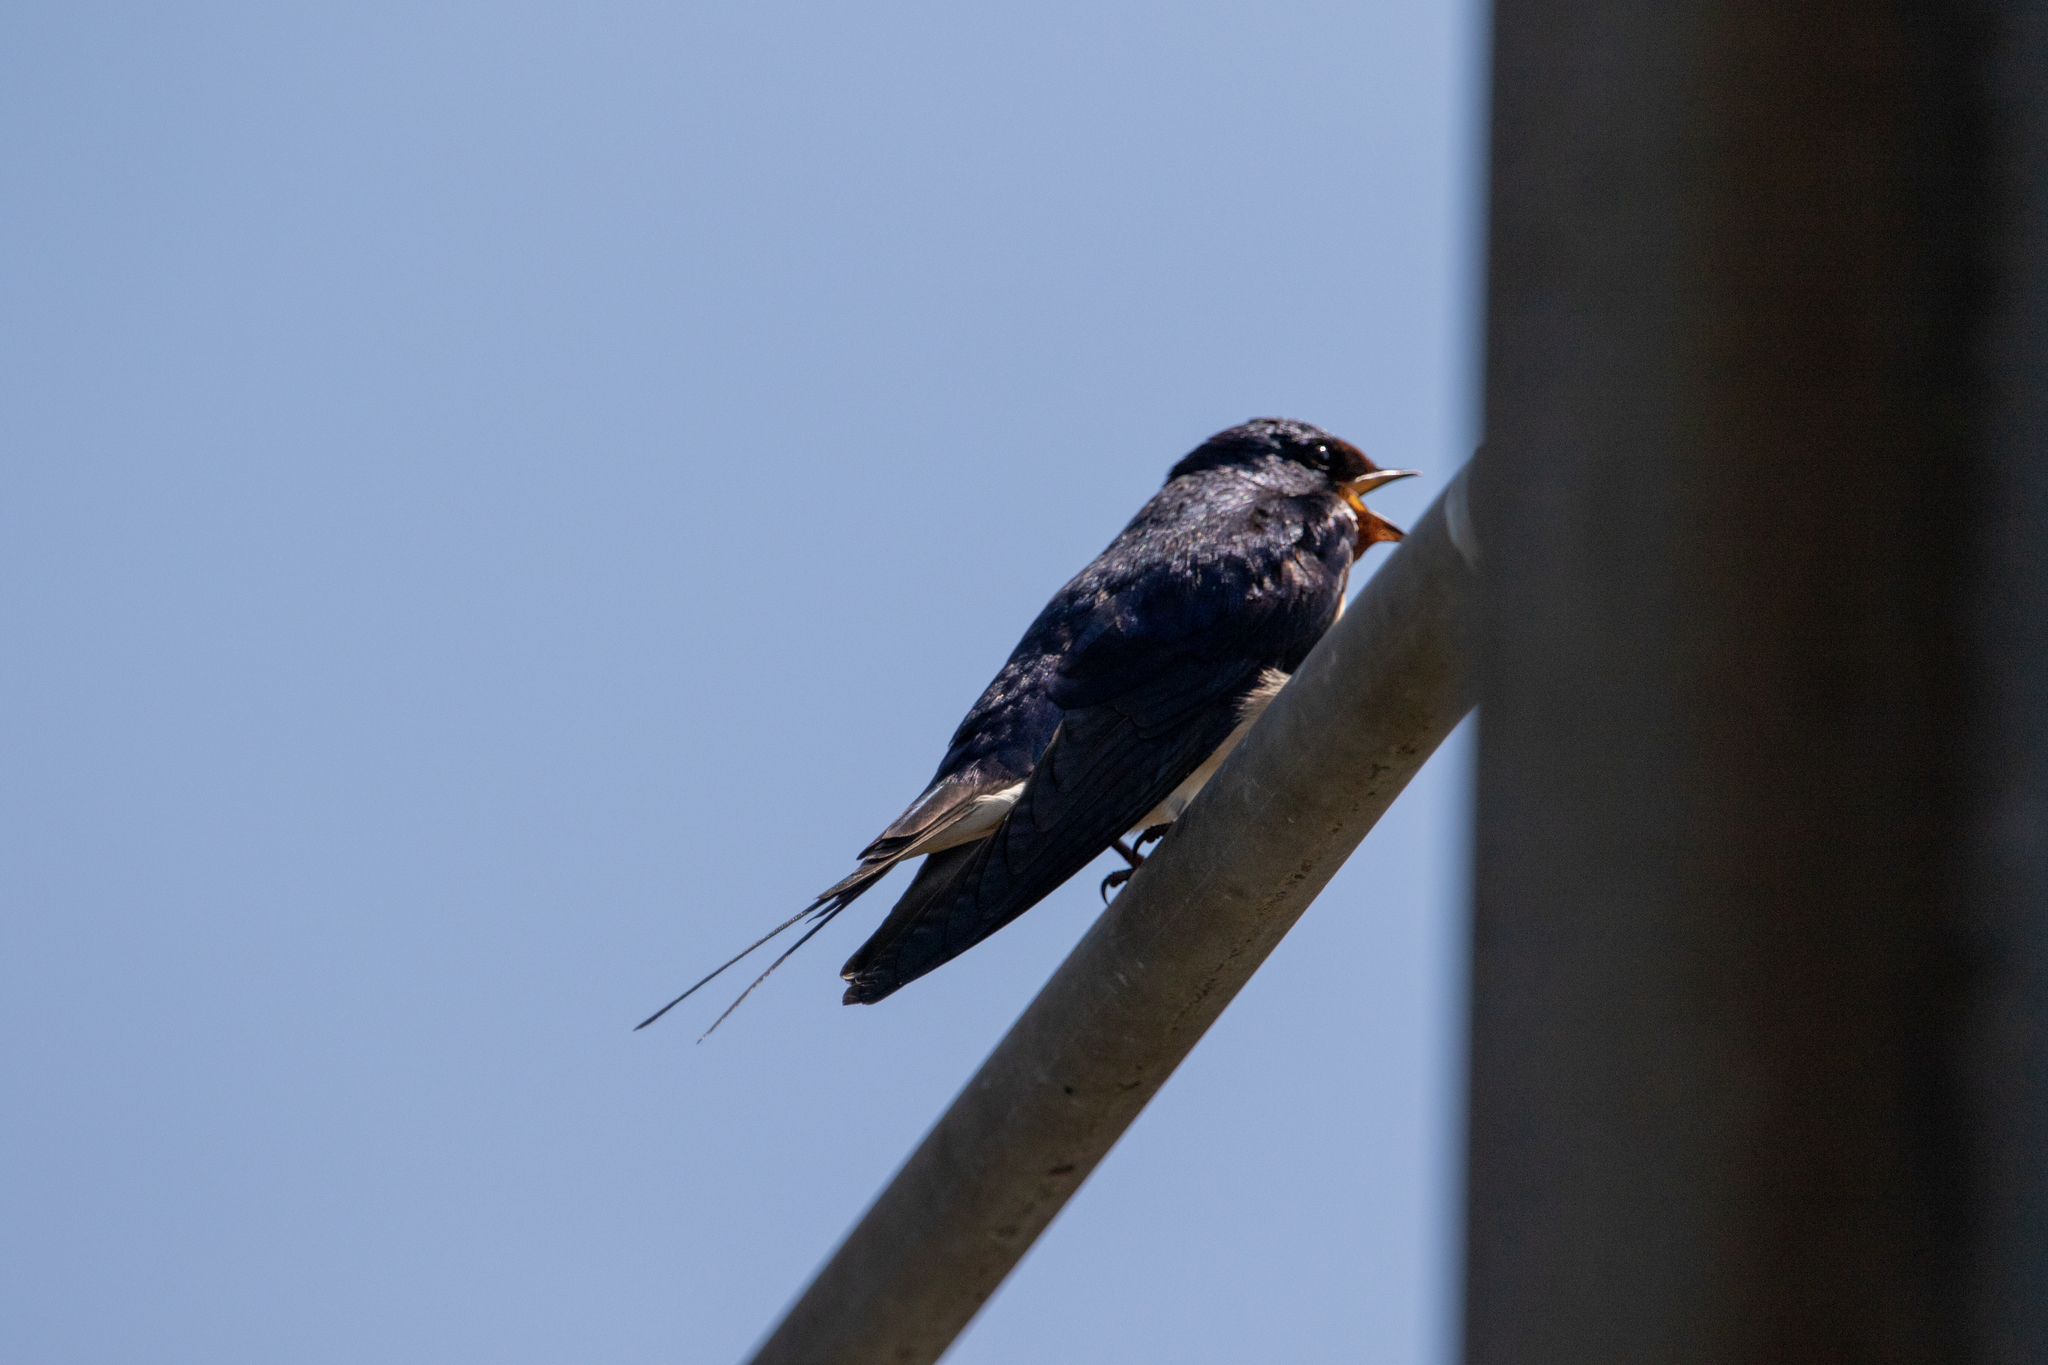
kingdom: Animalia
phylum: Chordata
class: Aves
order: Passeriformes
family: Hirundinidae
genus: Hirundo
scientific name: Hirundo rustica
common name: Barn swallow
